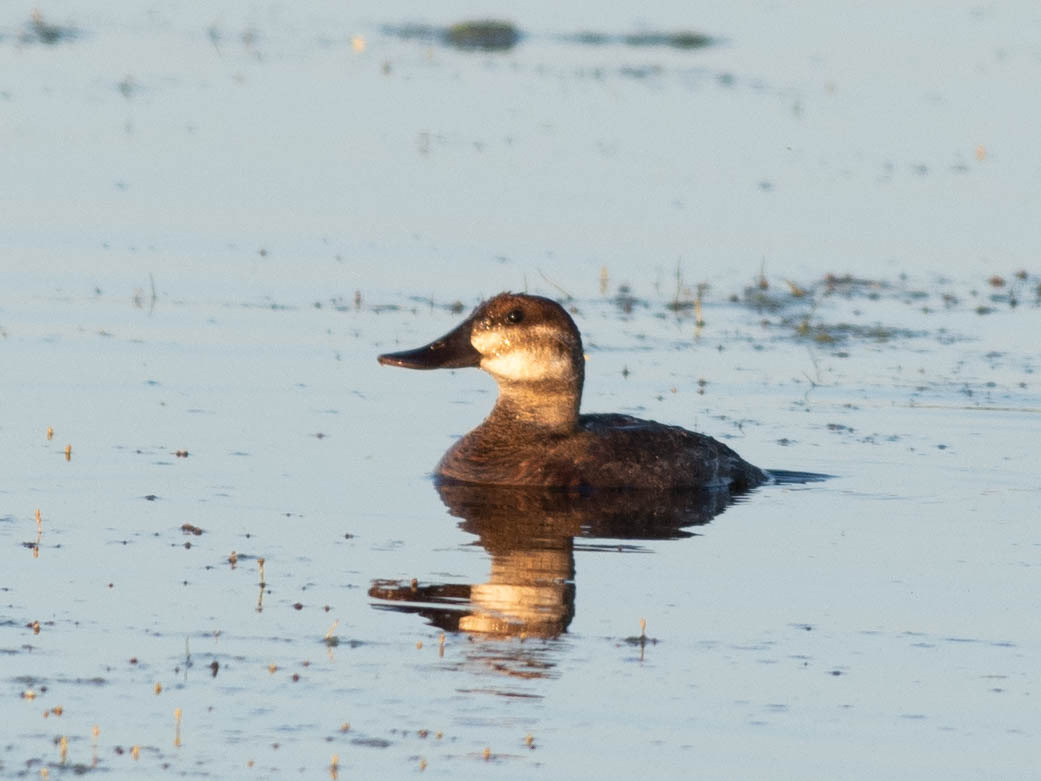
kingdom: Animalia
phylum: Chordata
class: Aves
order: Anseriformes
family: Anatidae
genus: Oxyura
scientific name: Oxyura jamaicensis
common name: Ruddy duck
